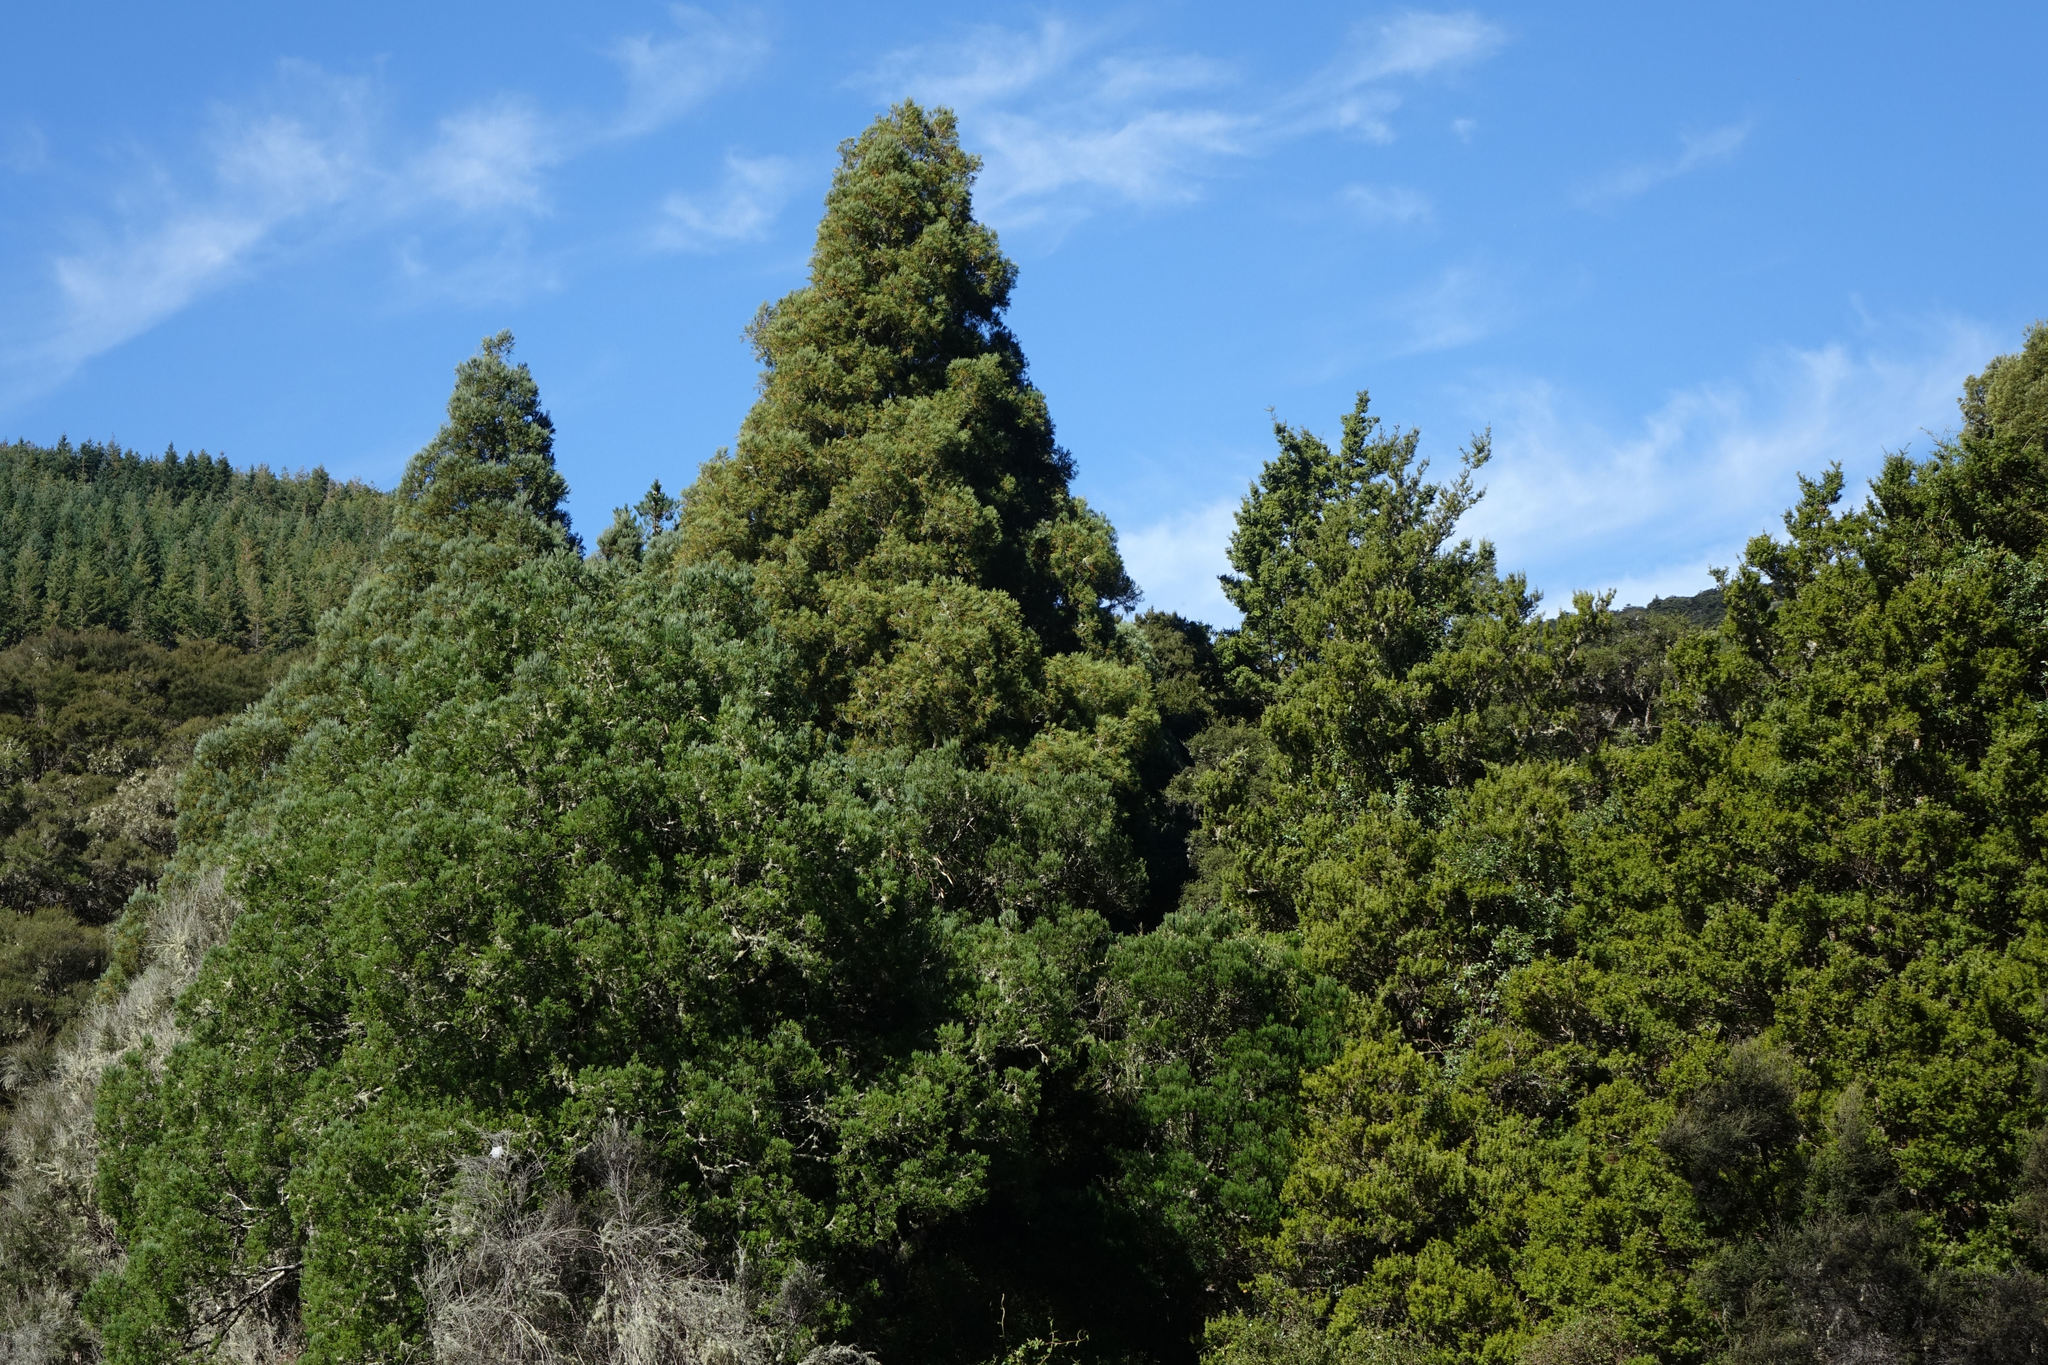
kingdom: Plantae
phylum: Tracheophyta
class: Pinopsida
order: Pinales
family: Podocarpaceae
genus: Dacrycarpus
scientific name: Dacrycarpus dacrydioides
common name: White pine
